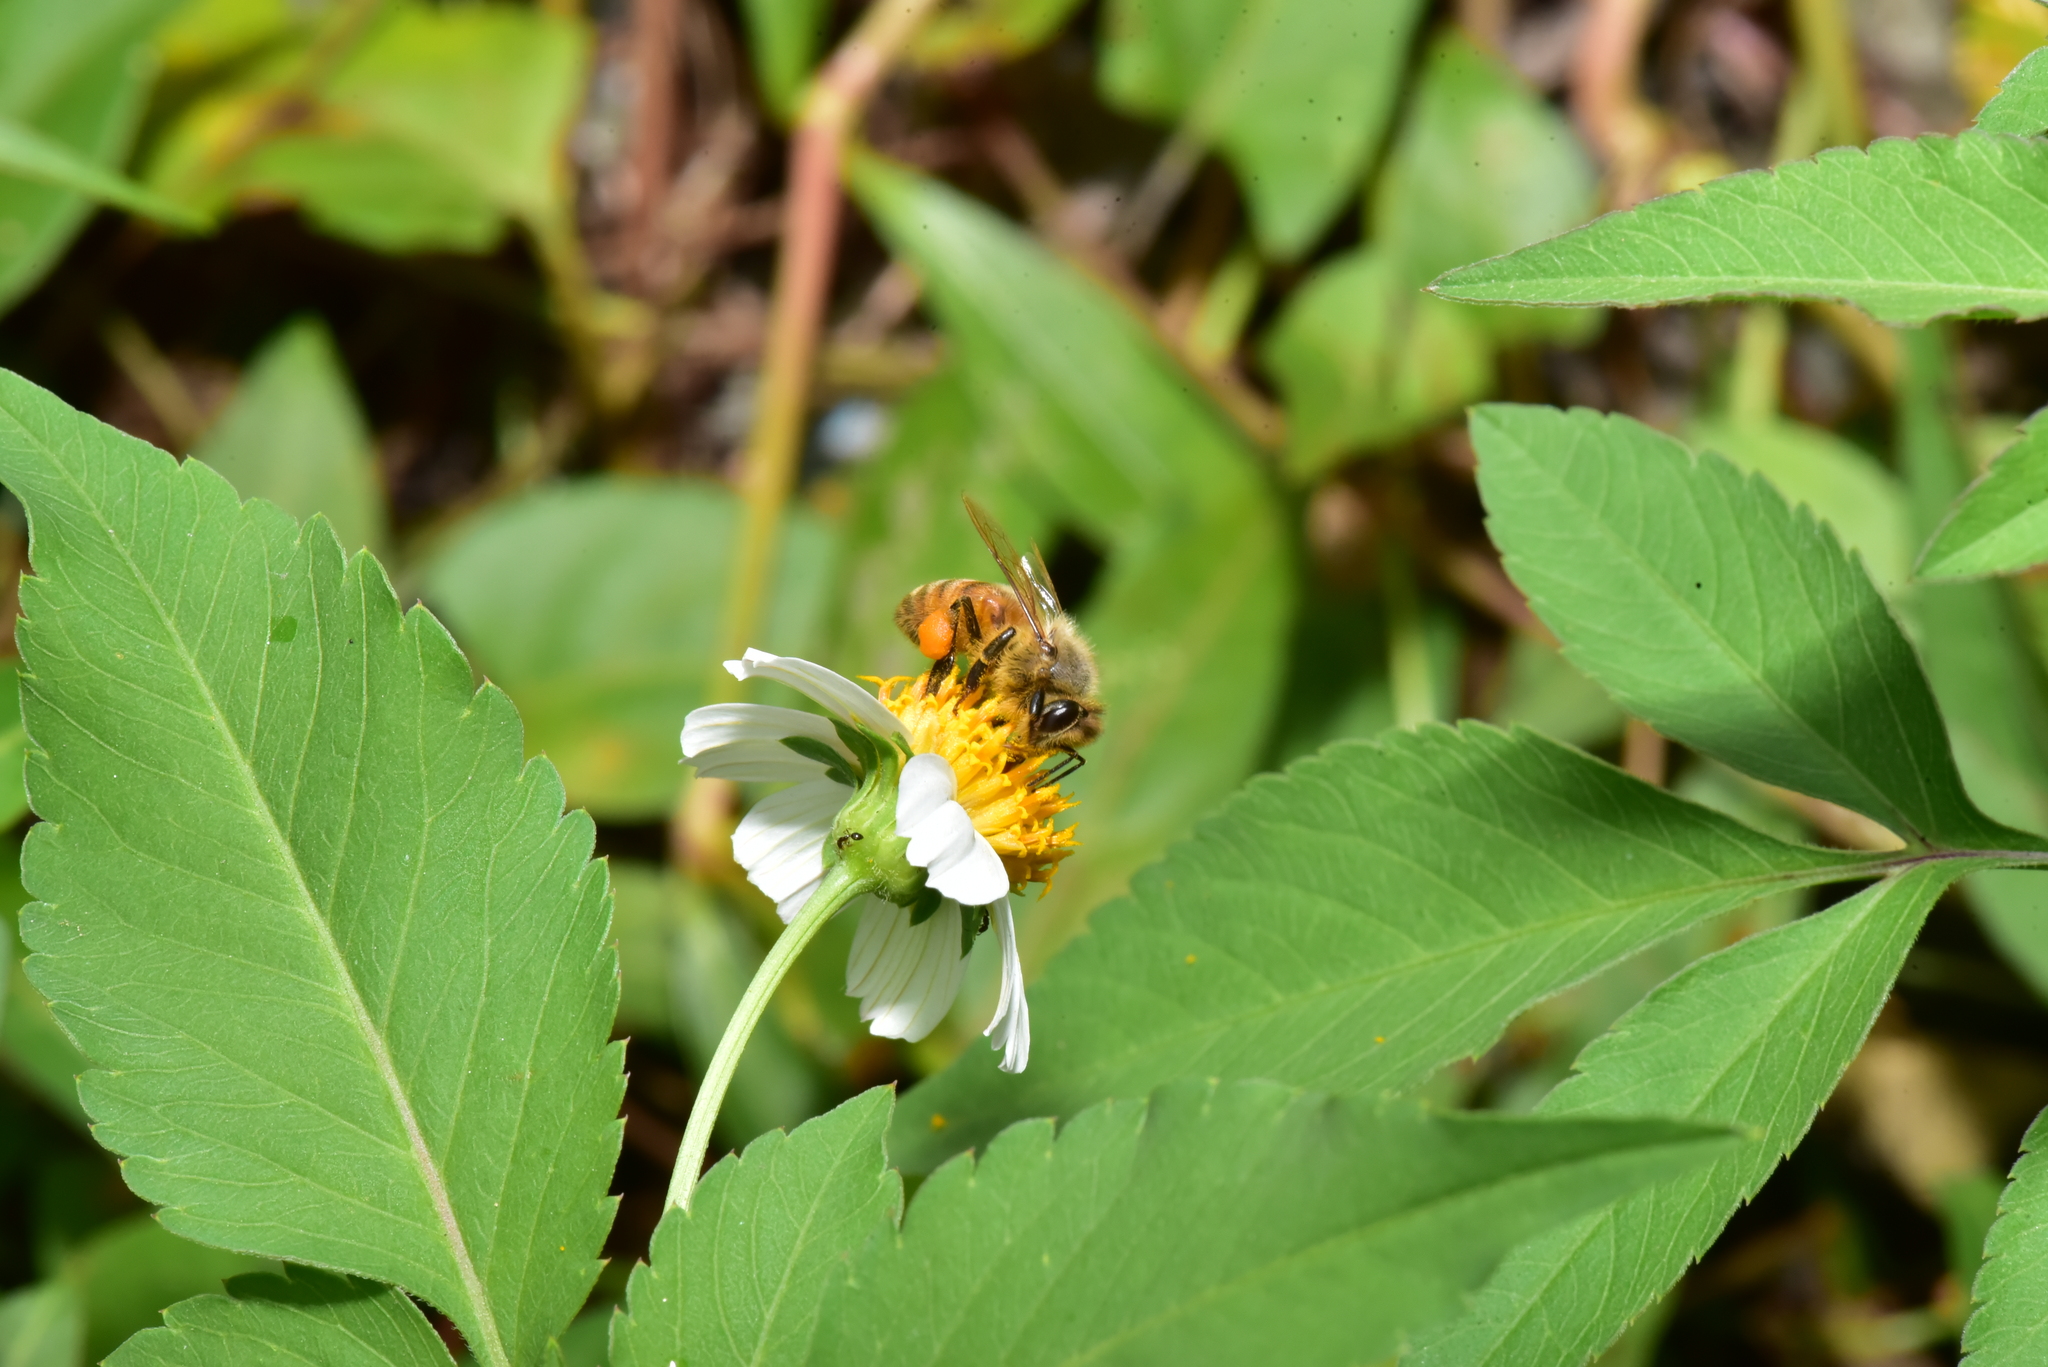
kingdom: Animalia
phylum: Arthropoda
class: Insecta
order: Hymenoptera
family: Apidae
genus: Apis
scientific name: Apis mellifera
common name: Honey bee
